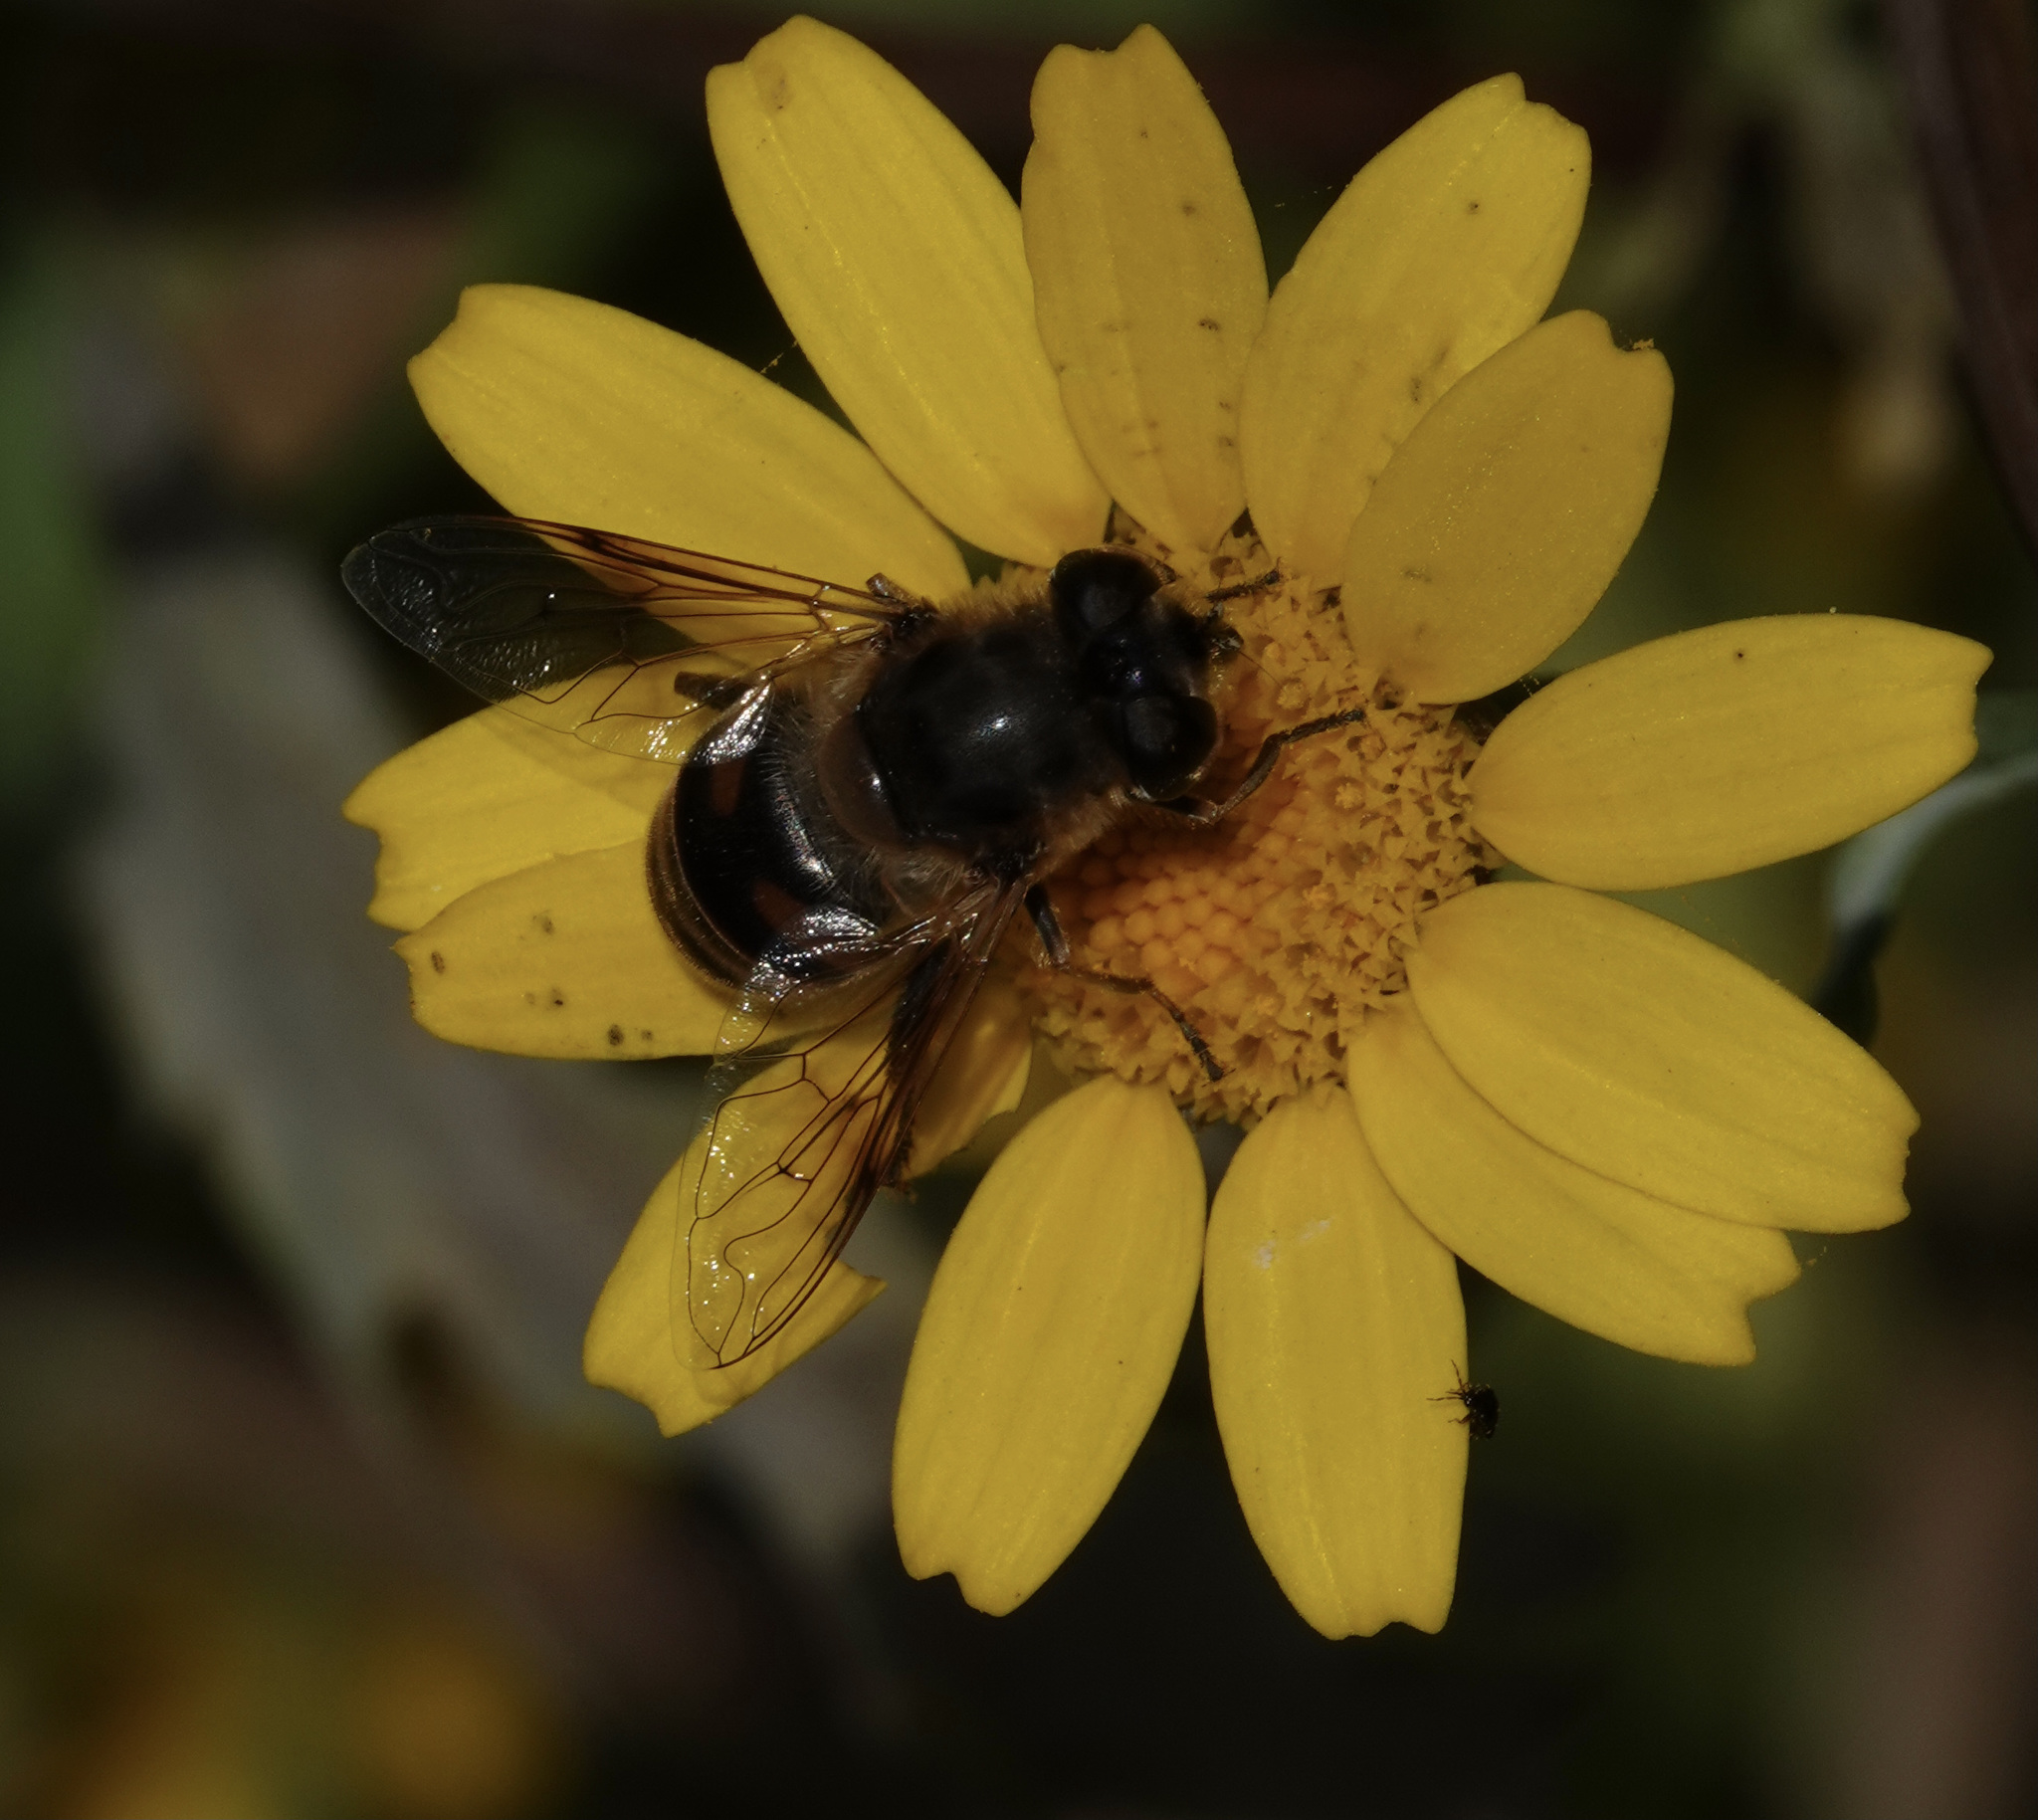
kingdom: Animalia
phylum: Arthropoda
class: Insecta
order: Diptera
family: Syrphidae
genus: Eristalis
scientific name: Eristalis tenax
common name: Drone fly
